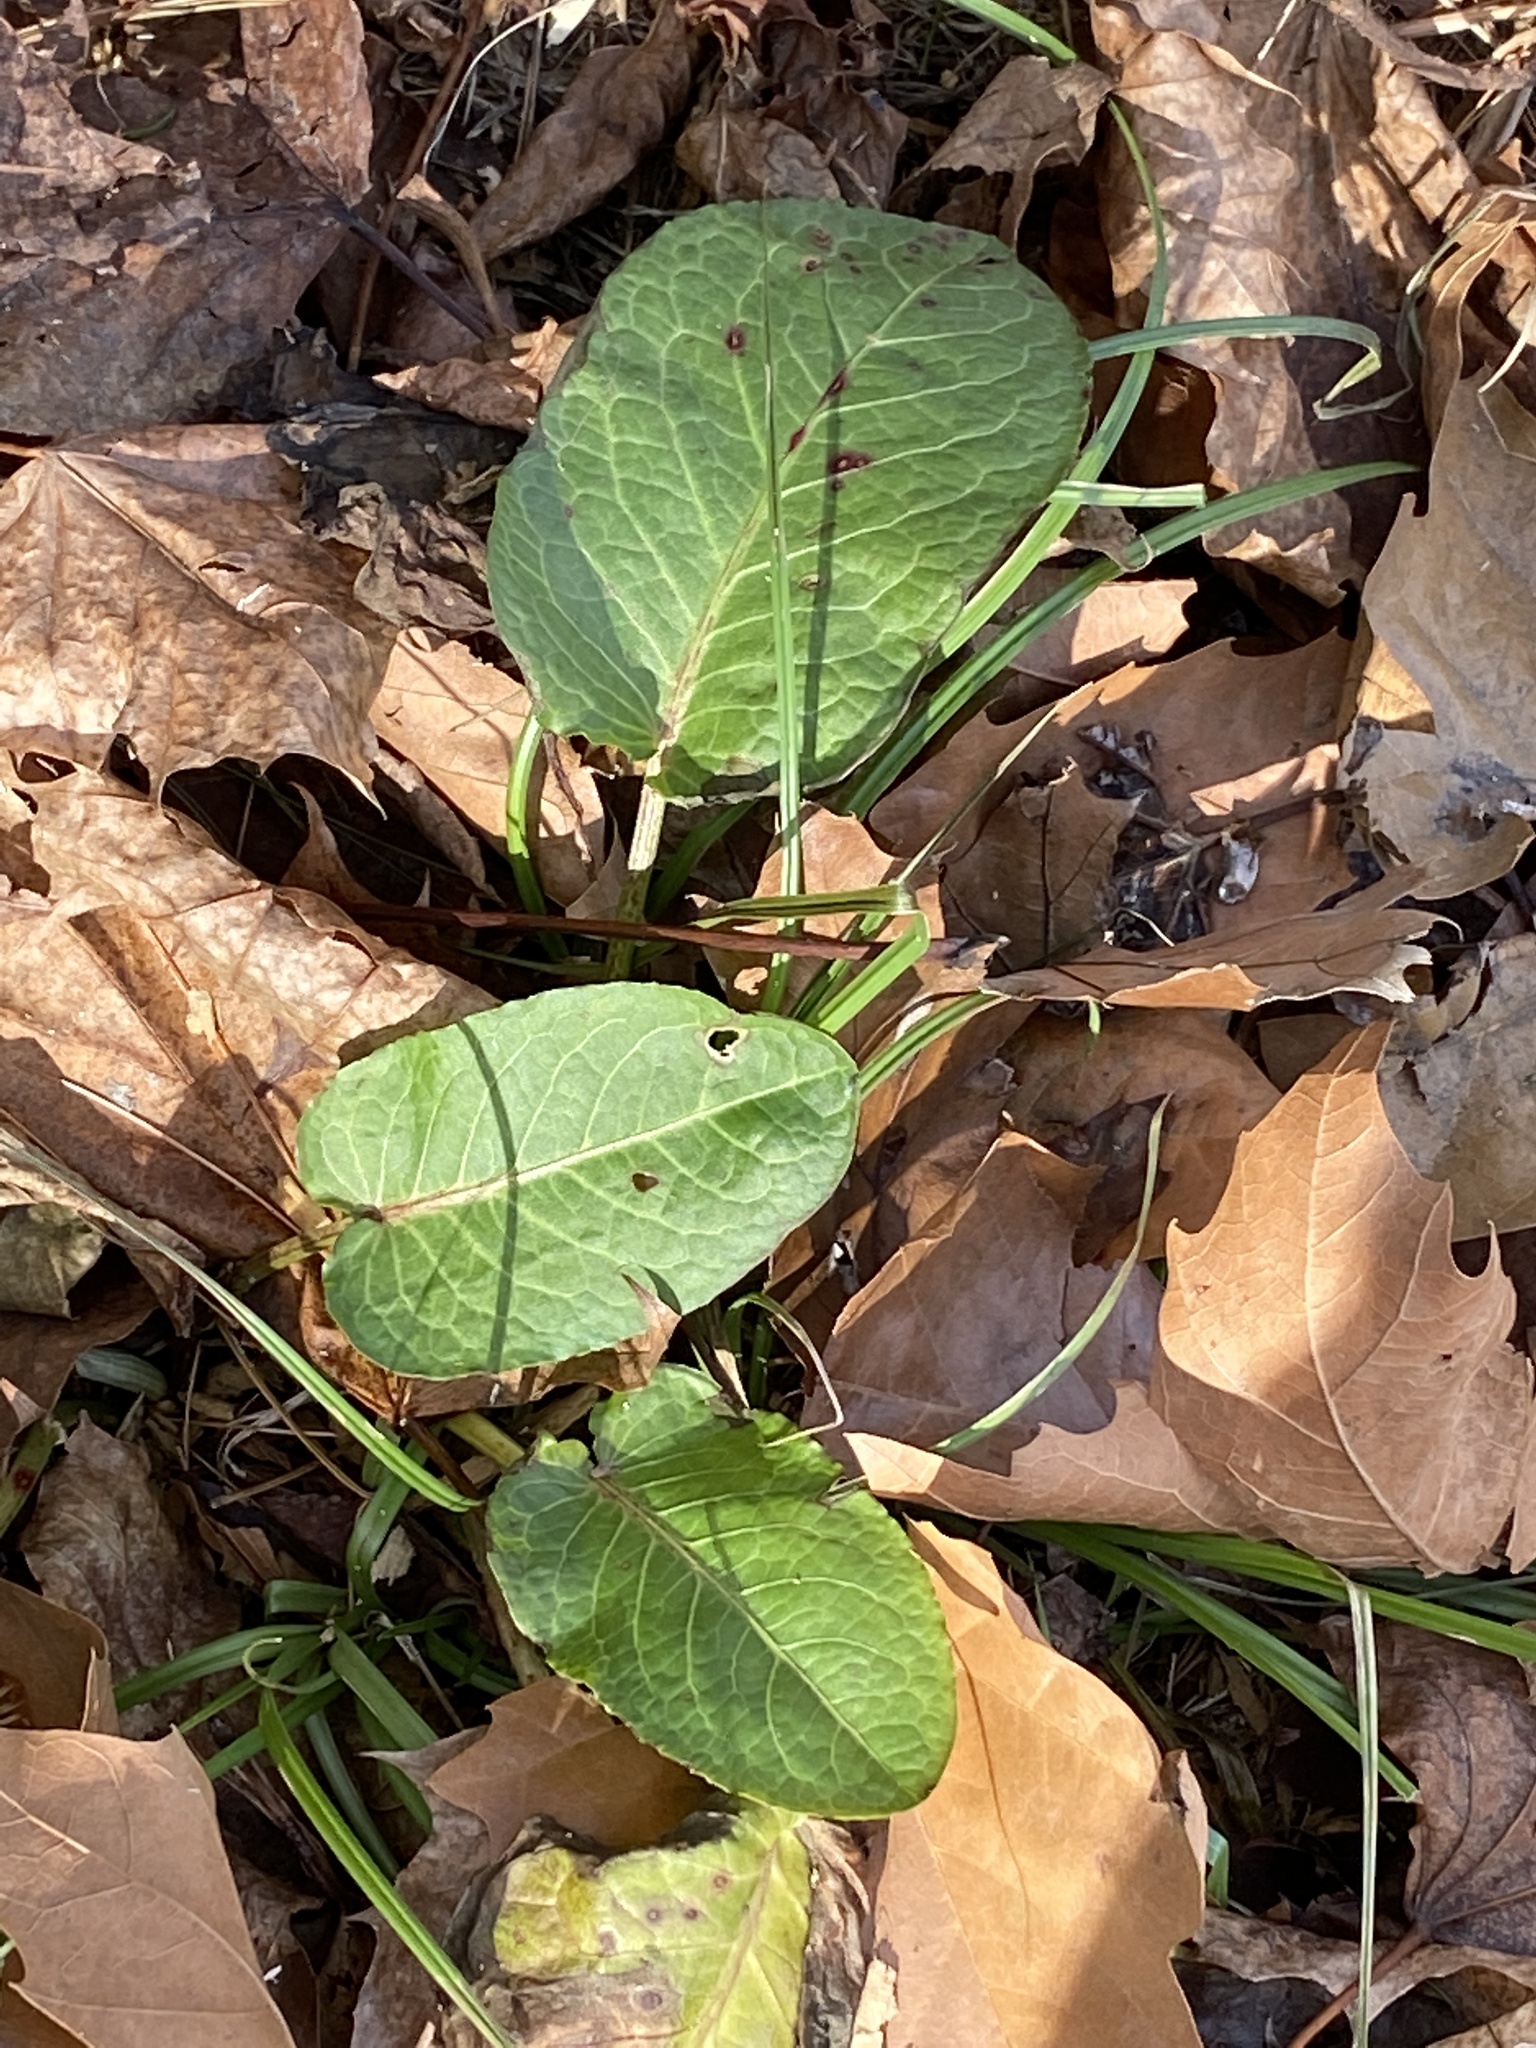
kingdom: Plantae
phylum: Tracheophyta
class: Magnoliopsida
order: Caryophyllales
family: Polygonaceae
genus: Rumex
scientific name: Rumex obtusifolius
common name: Bitter dock
